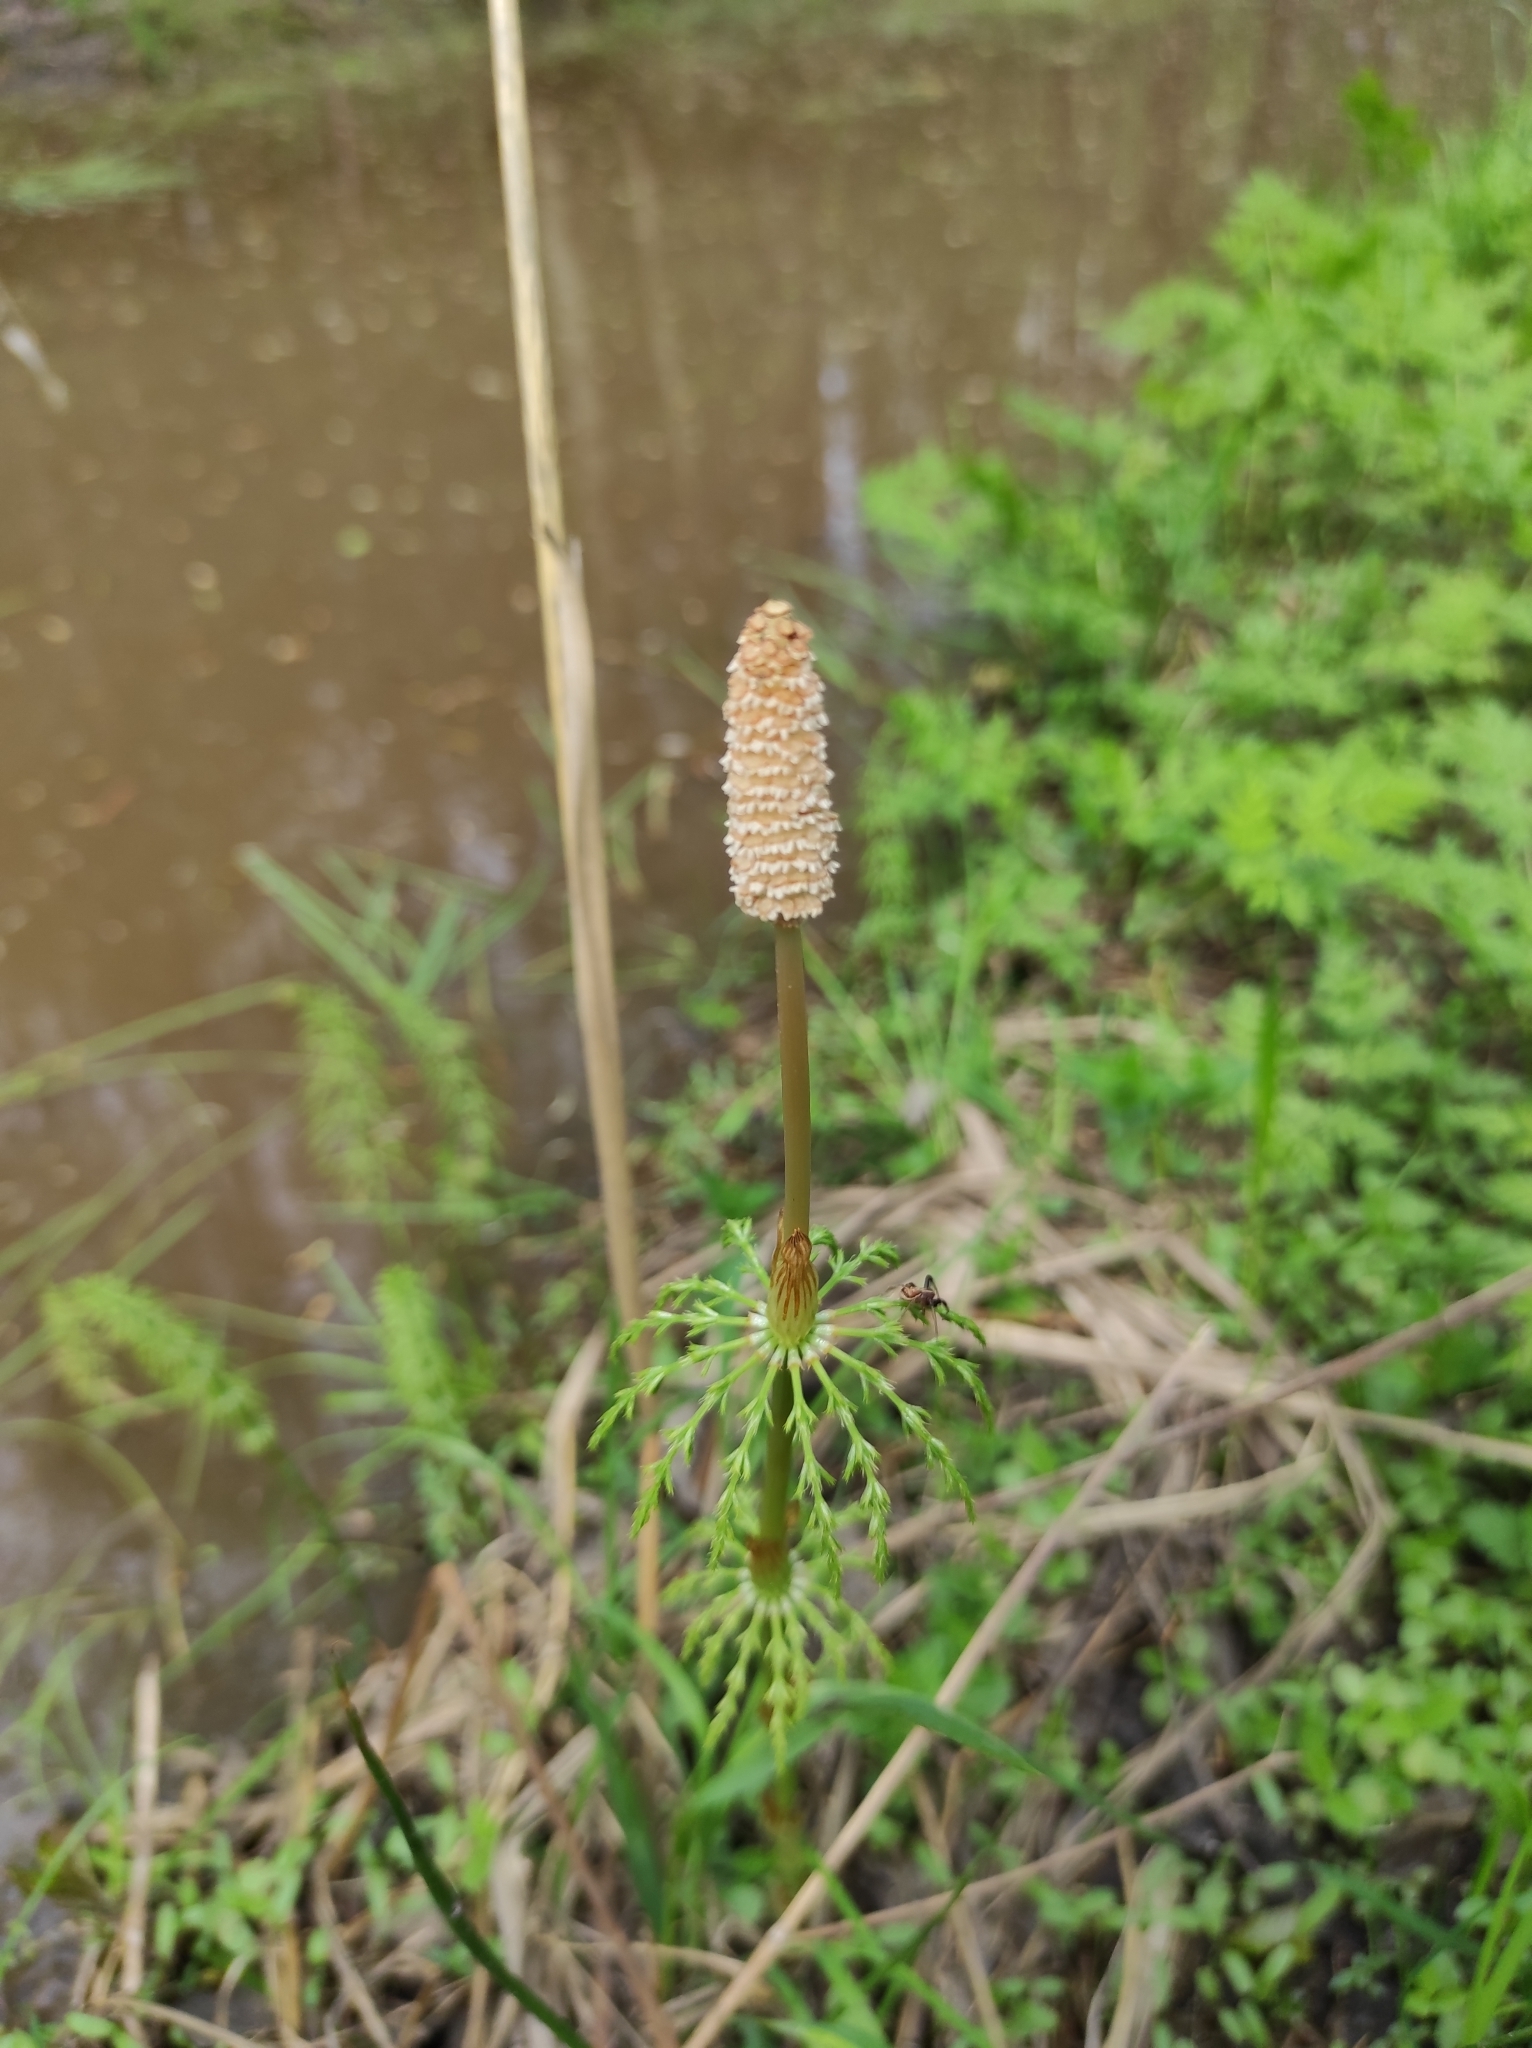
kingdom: Plantae
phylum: Tracheophyta
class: Polypodiopsida
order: Equisetales
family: Equisetaceae
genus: Equisetum
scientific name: Equisetum sylvaticum
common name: Wood horsetail
